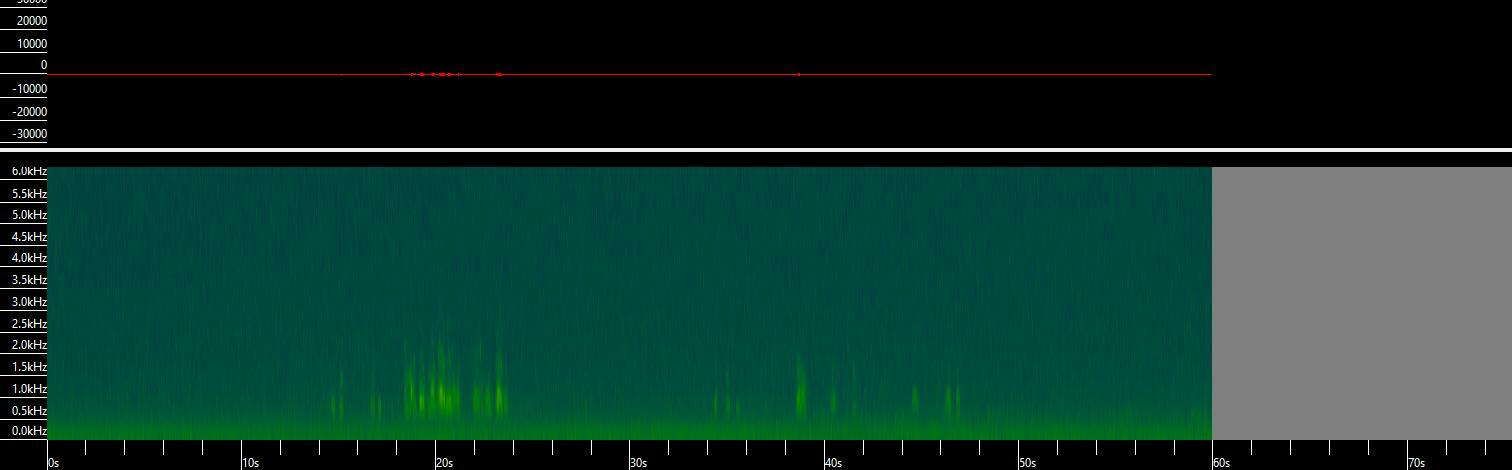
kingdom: Animalia
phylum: Chordata
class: Aves
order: Gruiformes
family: Gruidae
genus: Grus
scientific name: Grus grus
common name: Common crane
